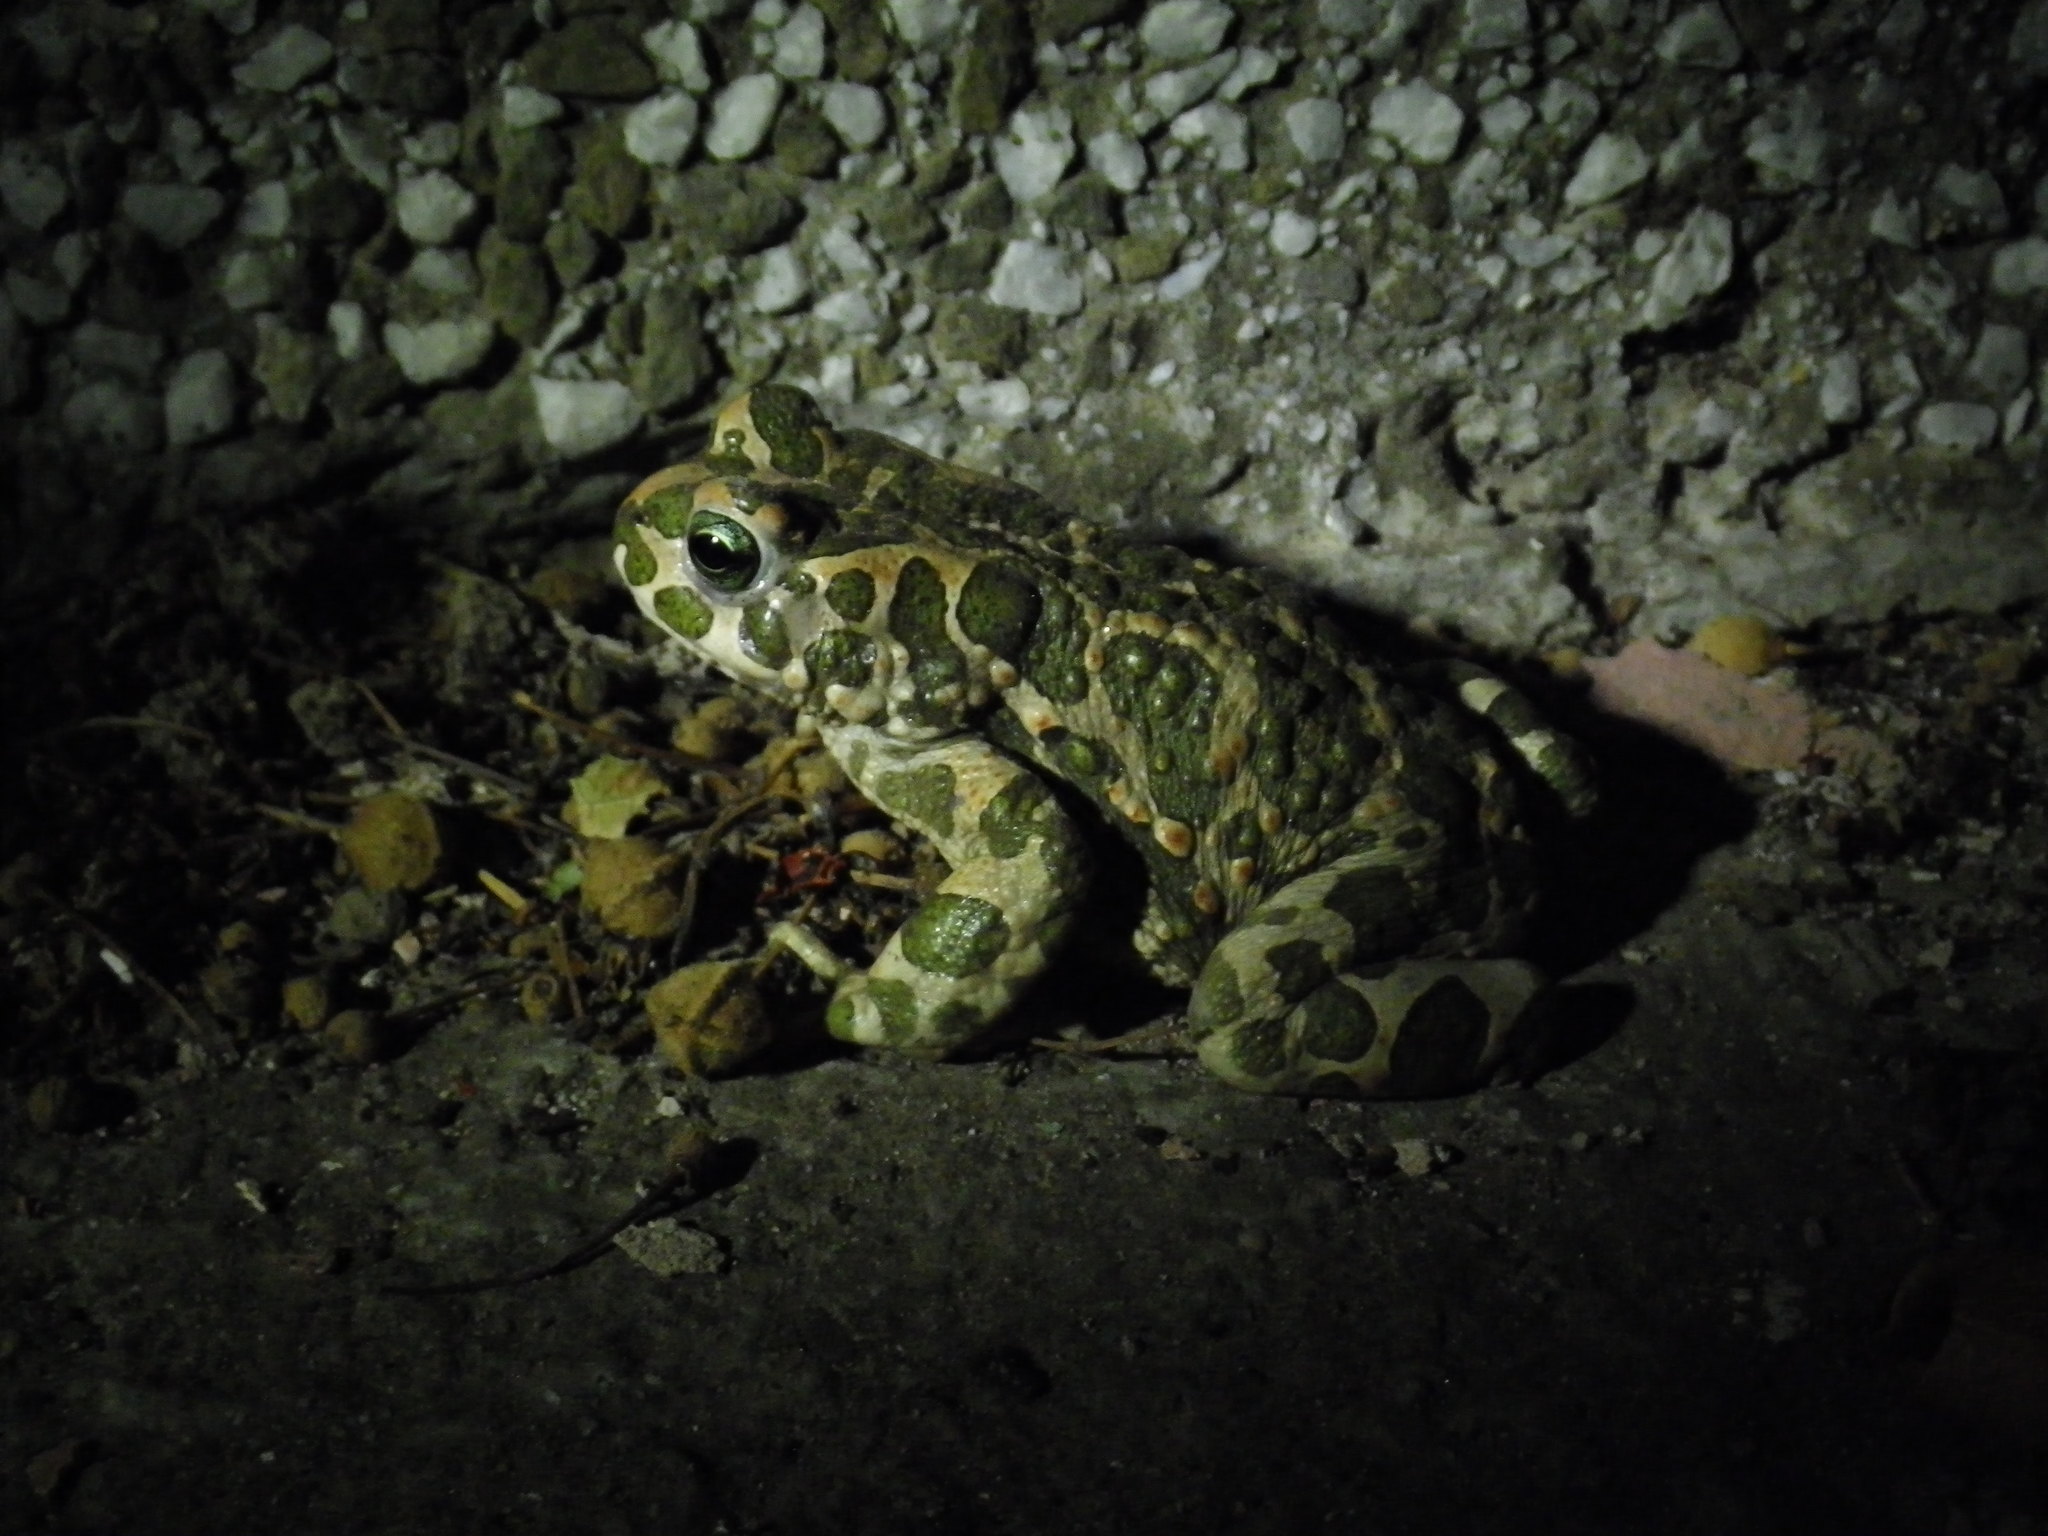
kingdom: Animalia
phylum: Chordata
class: Amphibia
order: Anura
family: Bufonidae
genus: Bufotes
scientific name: Bufotes viridis
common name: European green toad
